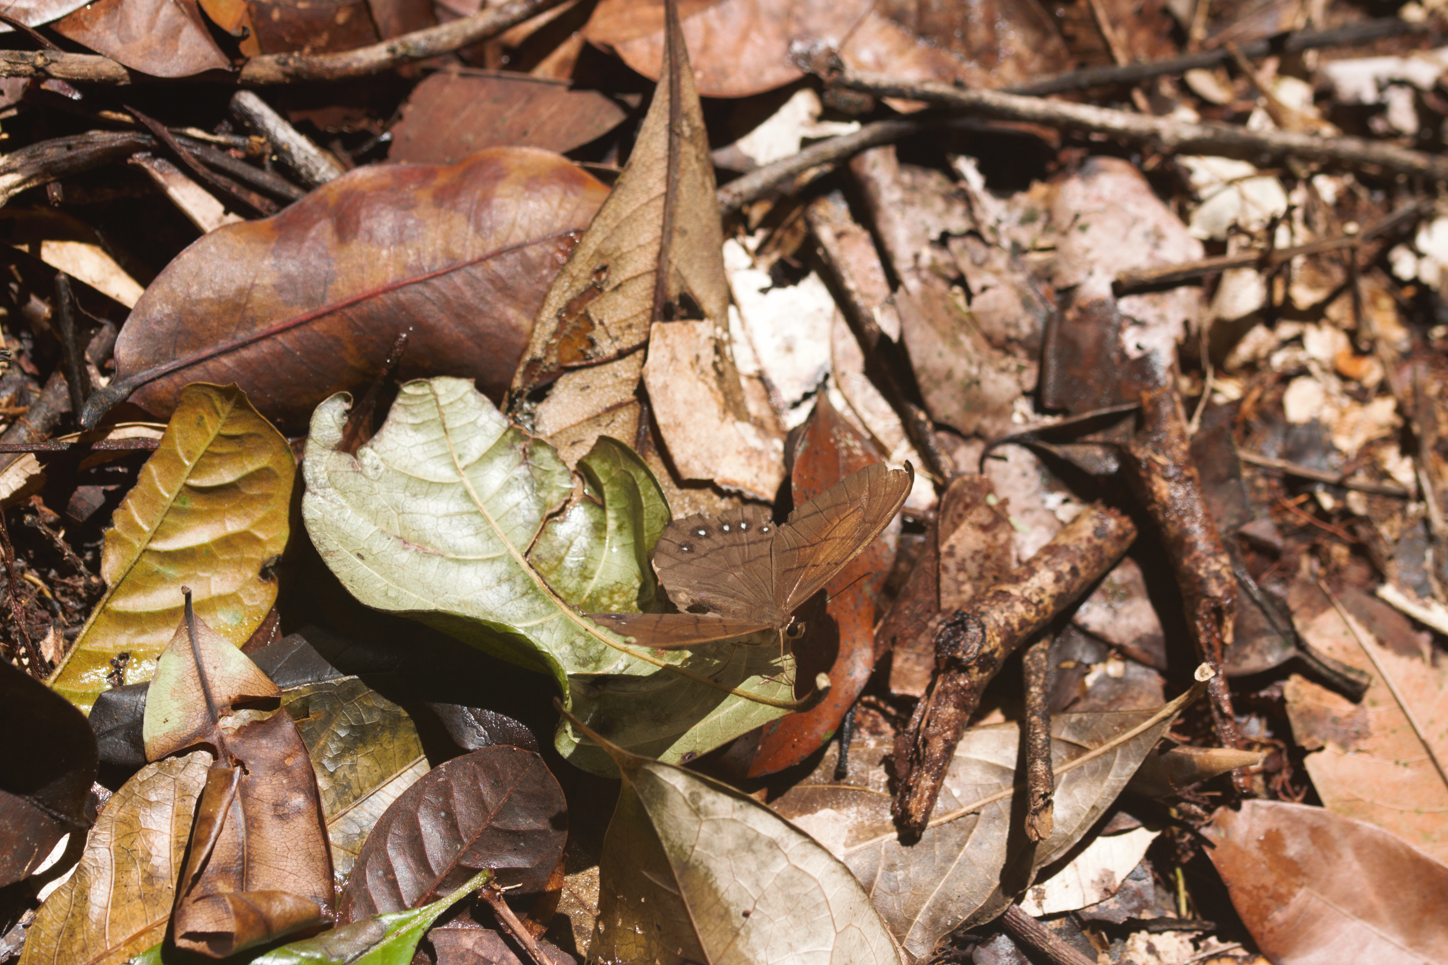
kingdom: Animalia
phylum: Arthropoda
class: Insecta
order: Lepidoptera
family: Nymphalidae
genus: Pierella
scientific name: Pierella rhea
